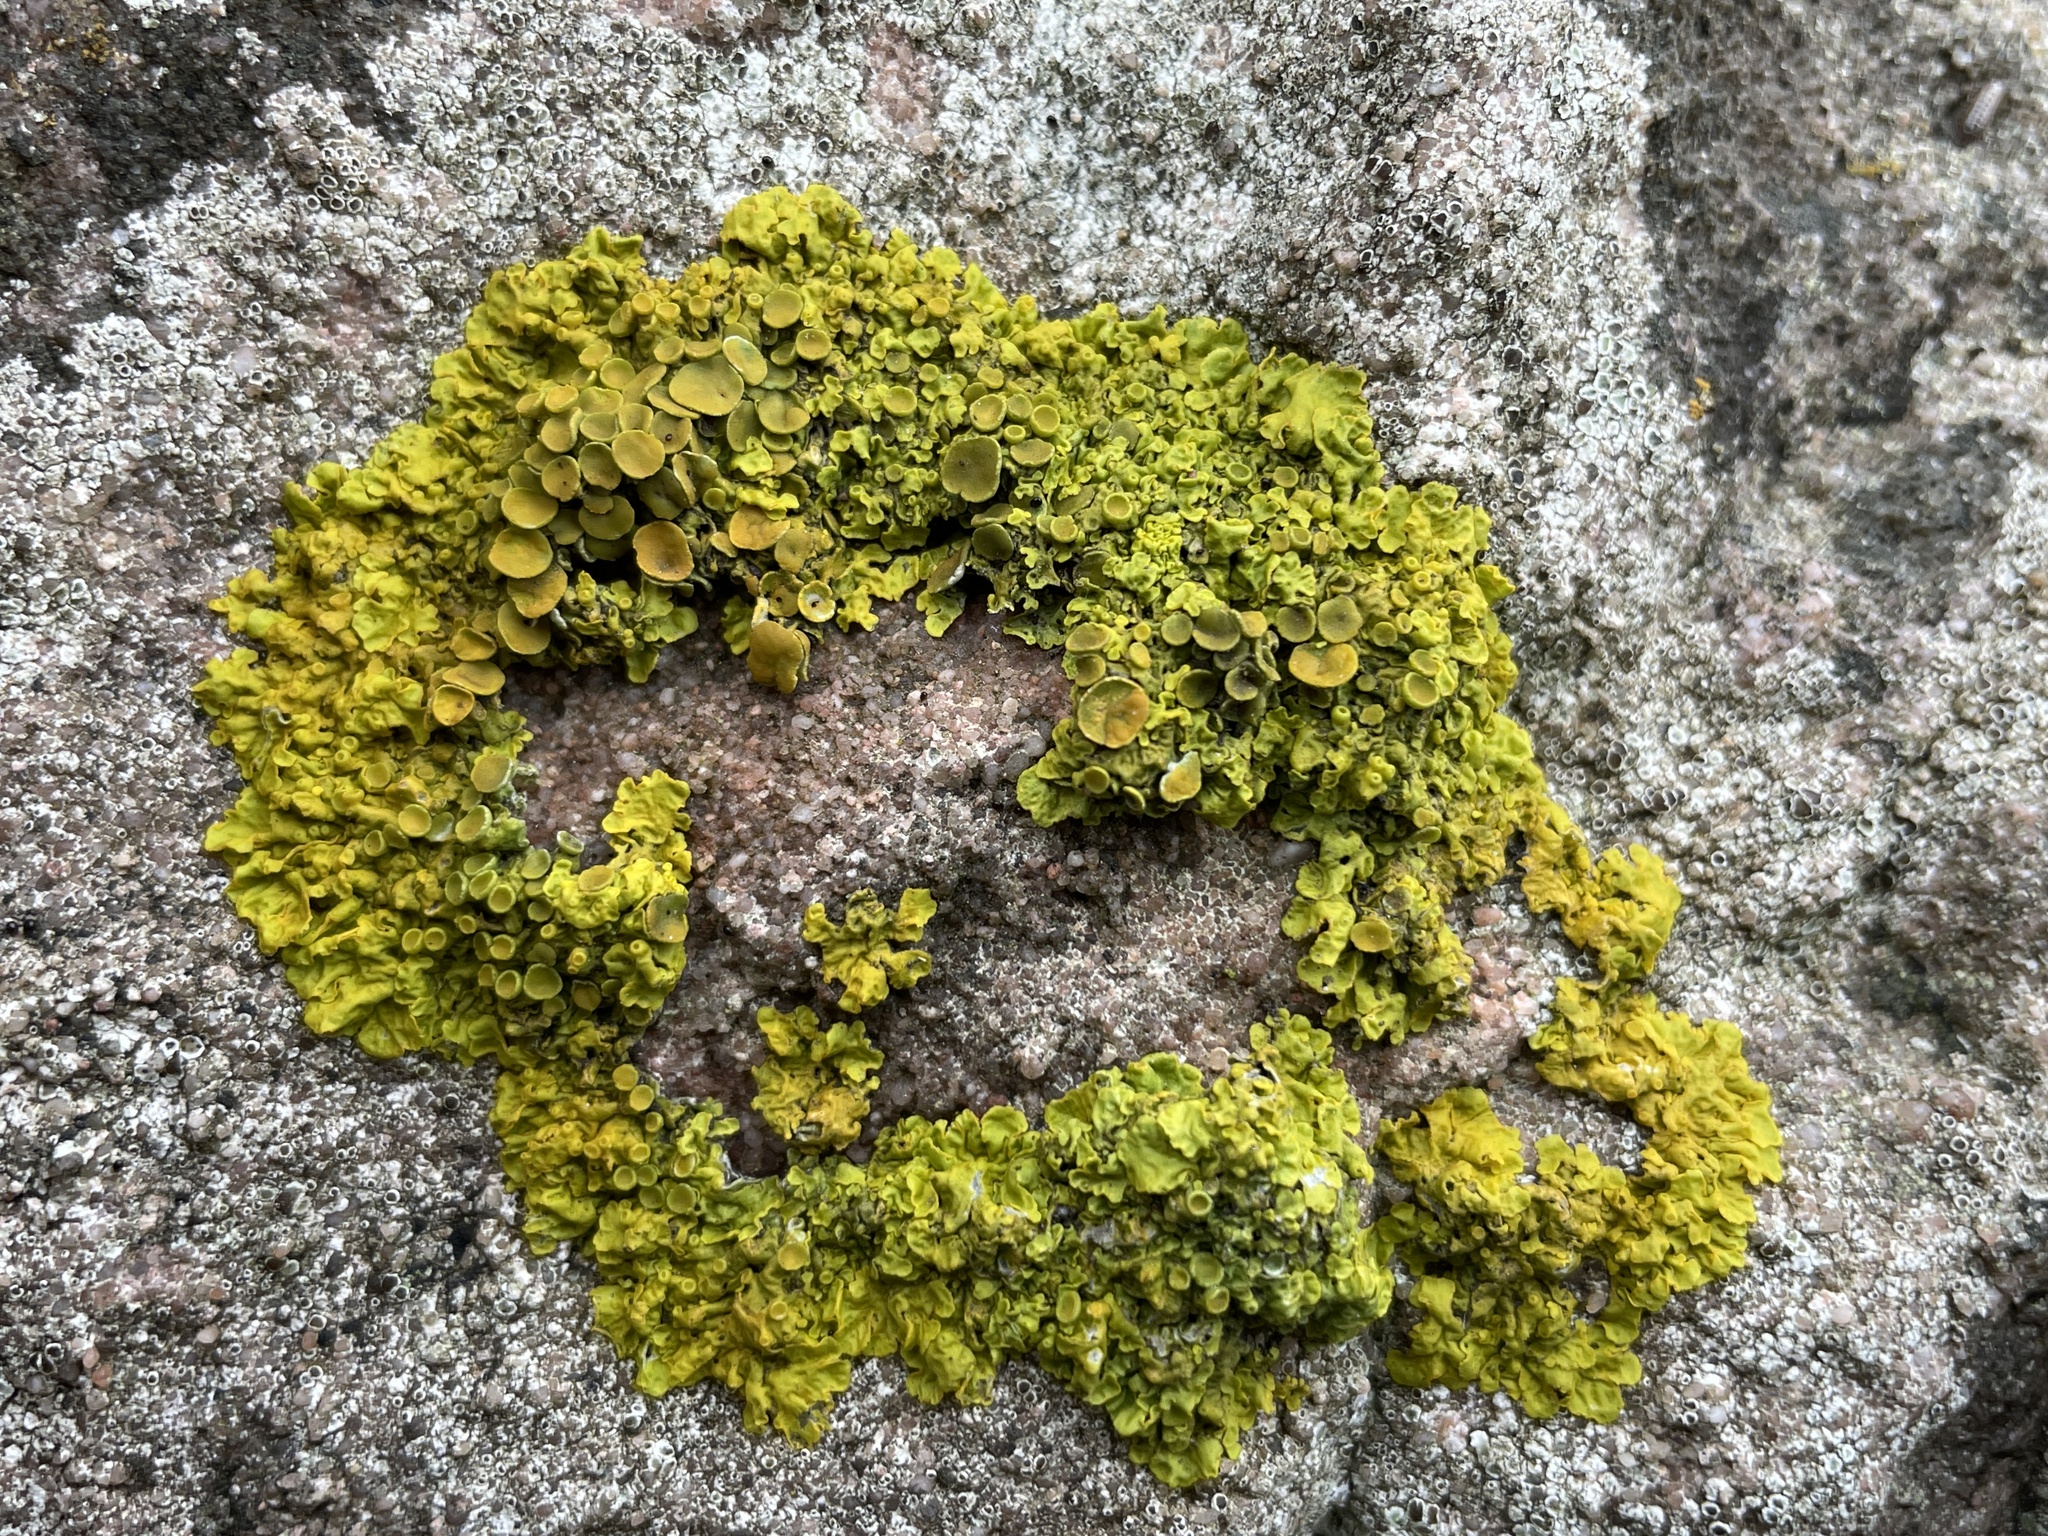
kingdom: Fungi
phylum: Ascomycota
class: Lecanoromycetes
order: Teloschistales
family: Teloschistaceae
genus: Xanthoria
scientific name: Xanthoria parietina
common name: Common orange lichen
